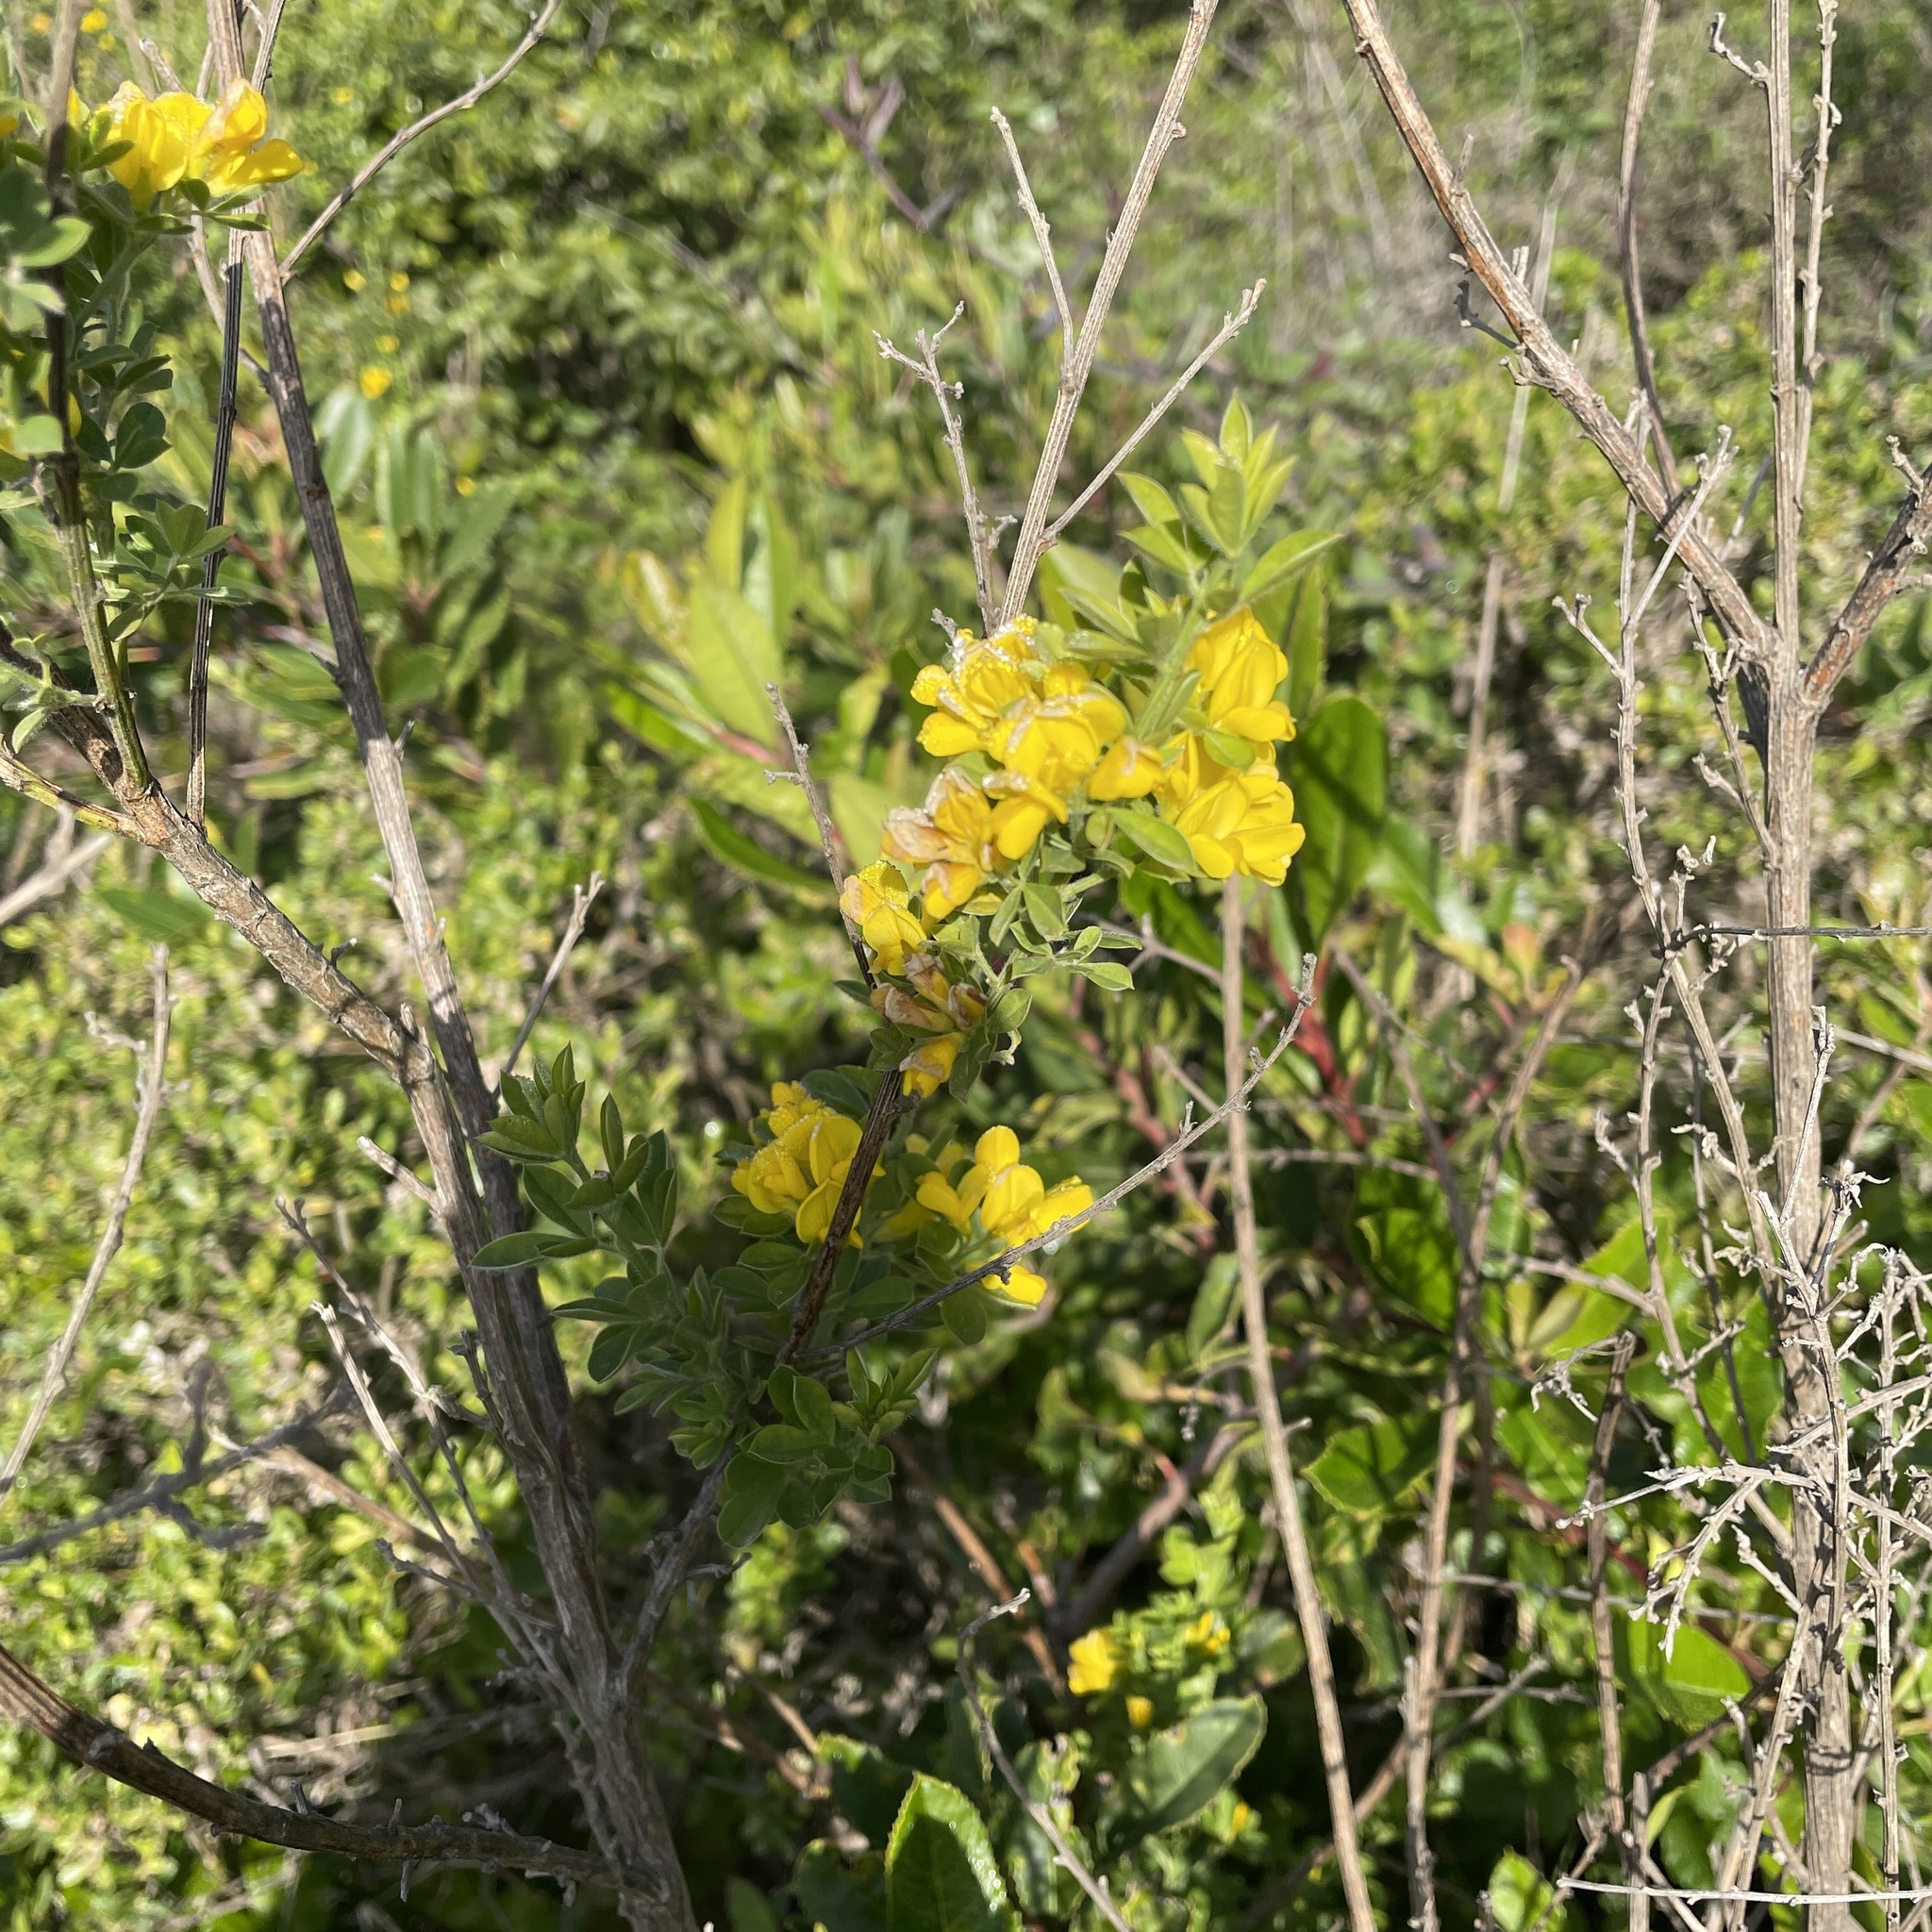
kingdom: Plantae
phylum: Tracheophyta
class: Magnoliopsida
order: Fabales
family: Fabaceae
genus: Genista
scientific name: Genista monspessulana
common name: Montpellier broom
